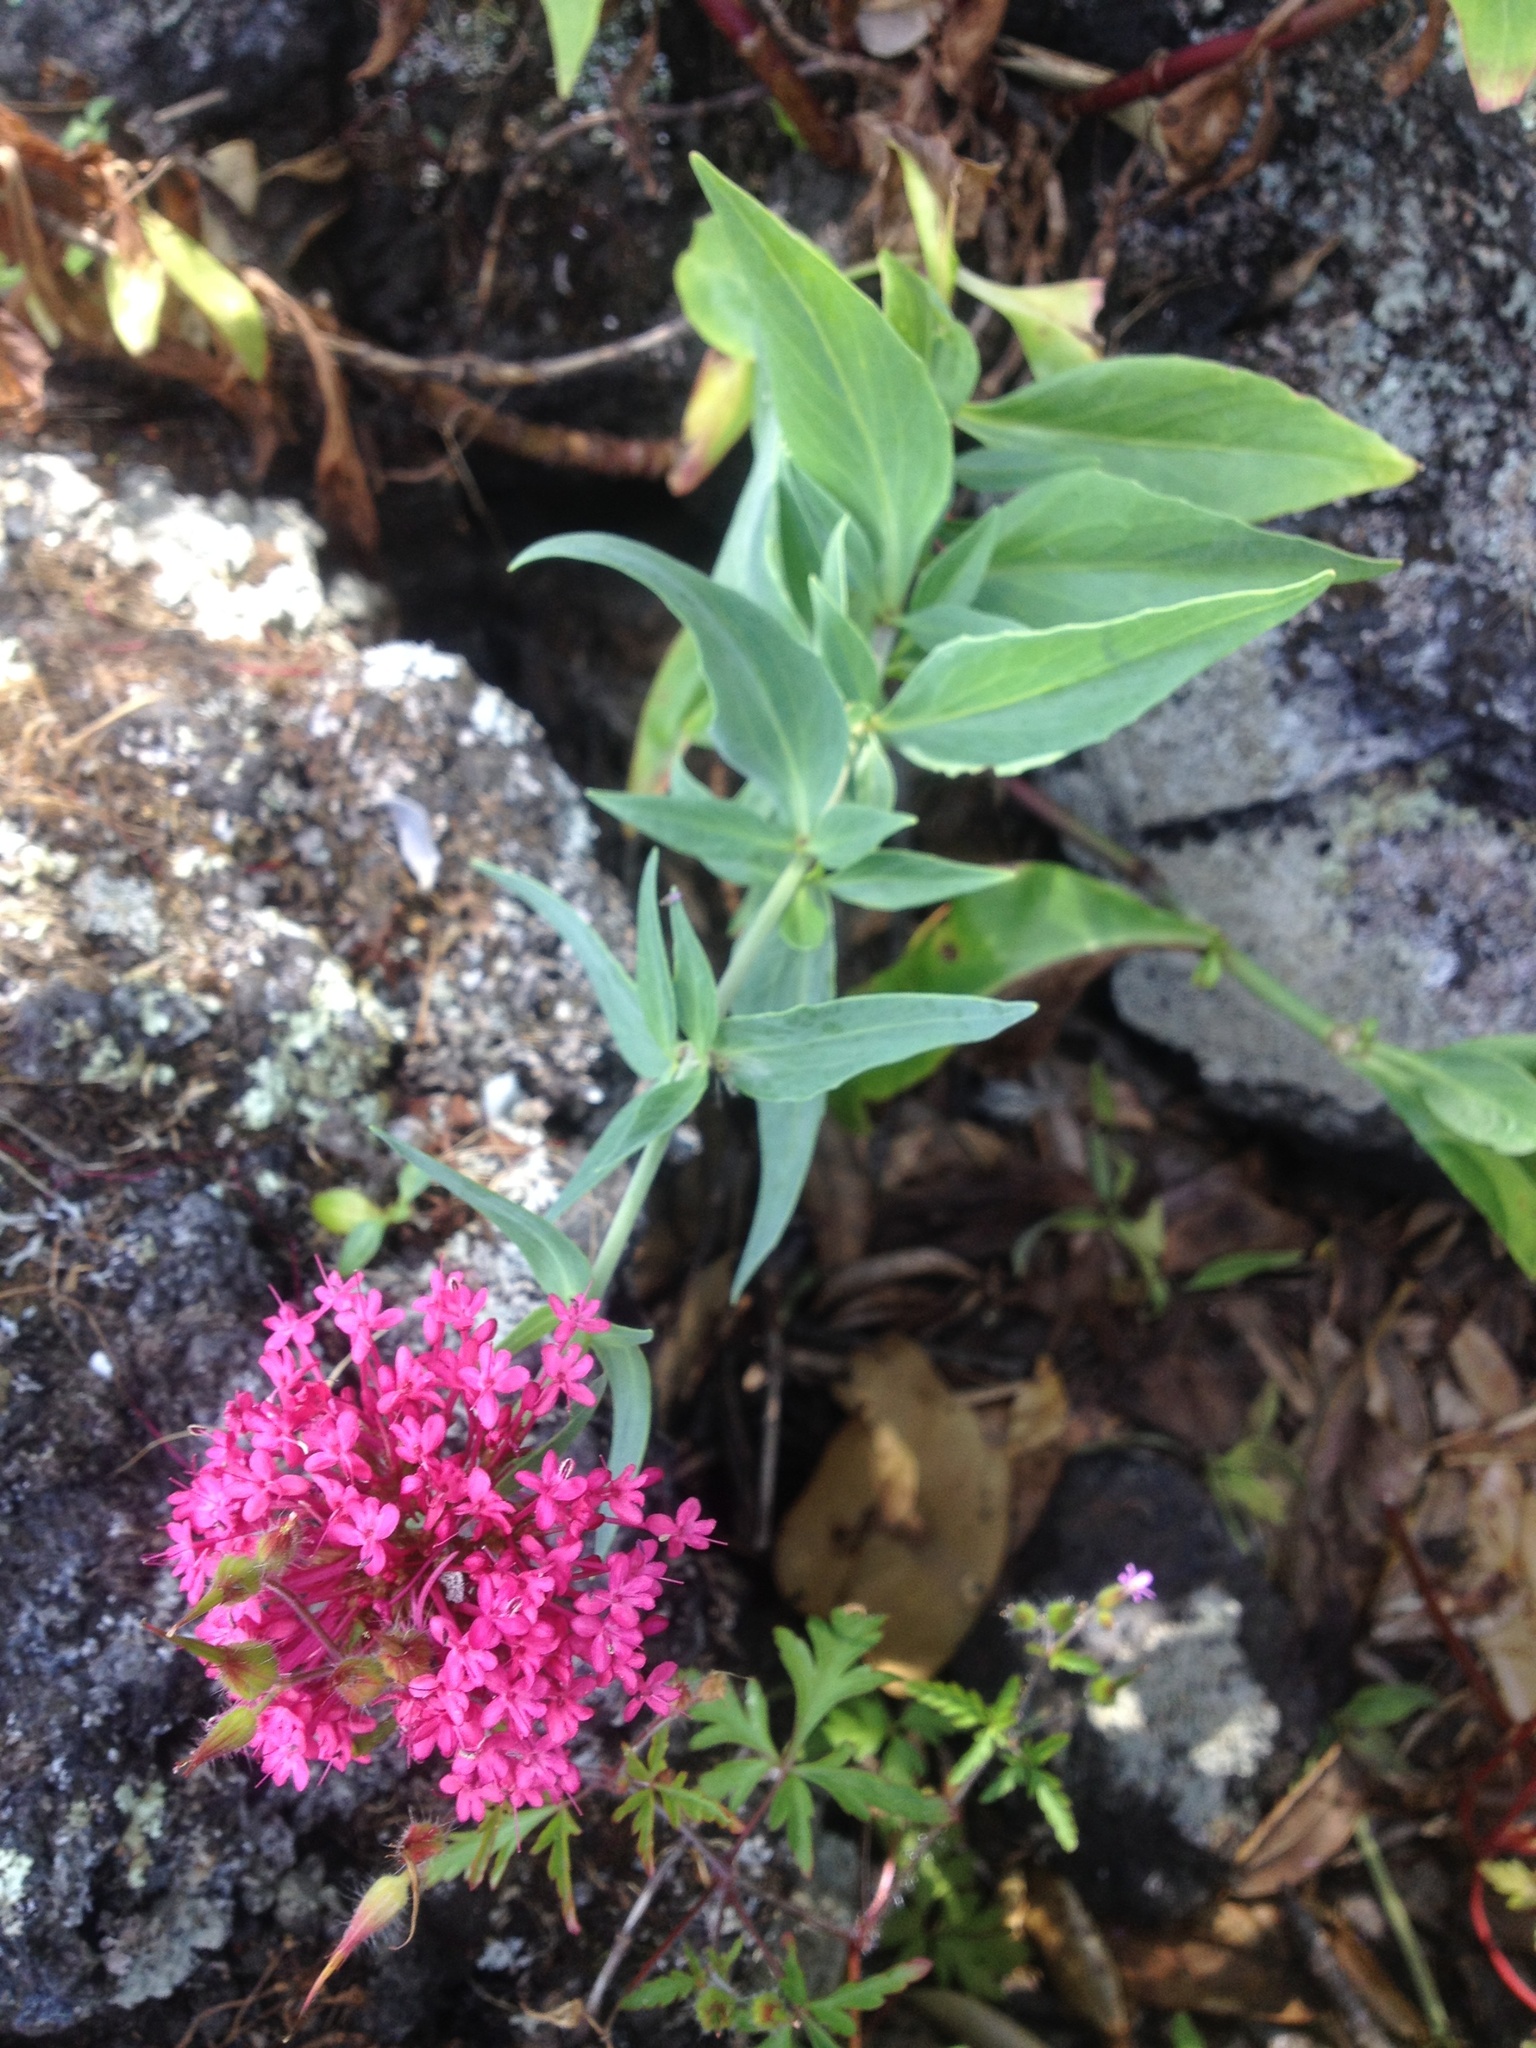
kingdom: Plantae
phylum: Tracheophyta
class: Magnoliopsida
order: Dipsacales
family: Caprifoliaceae
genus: Centranthus
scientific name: Centranthus ruber
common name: Red valerian
